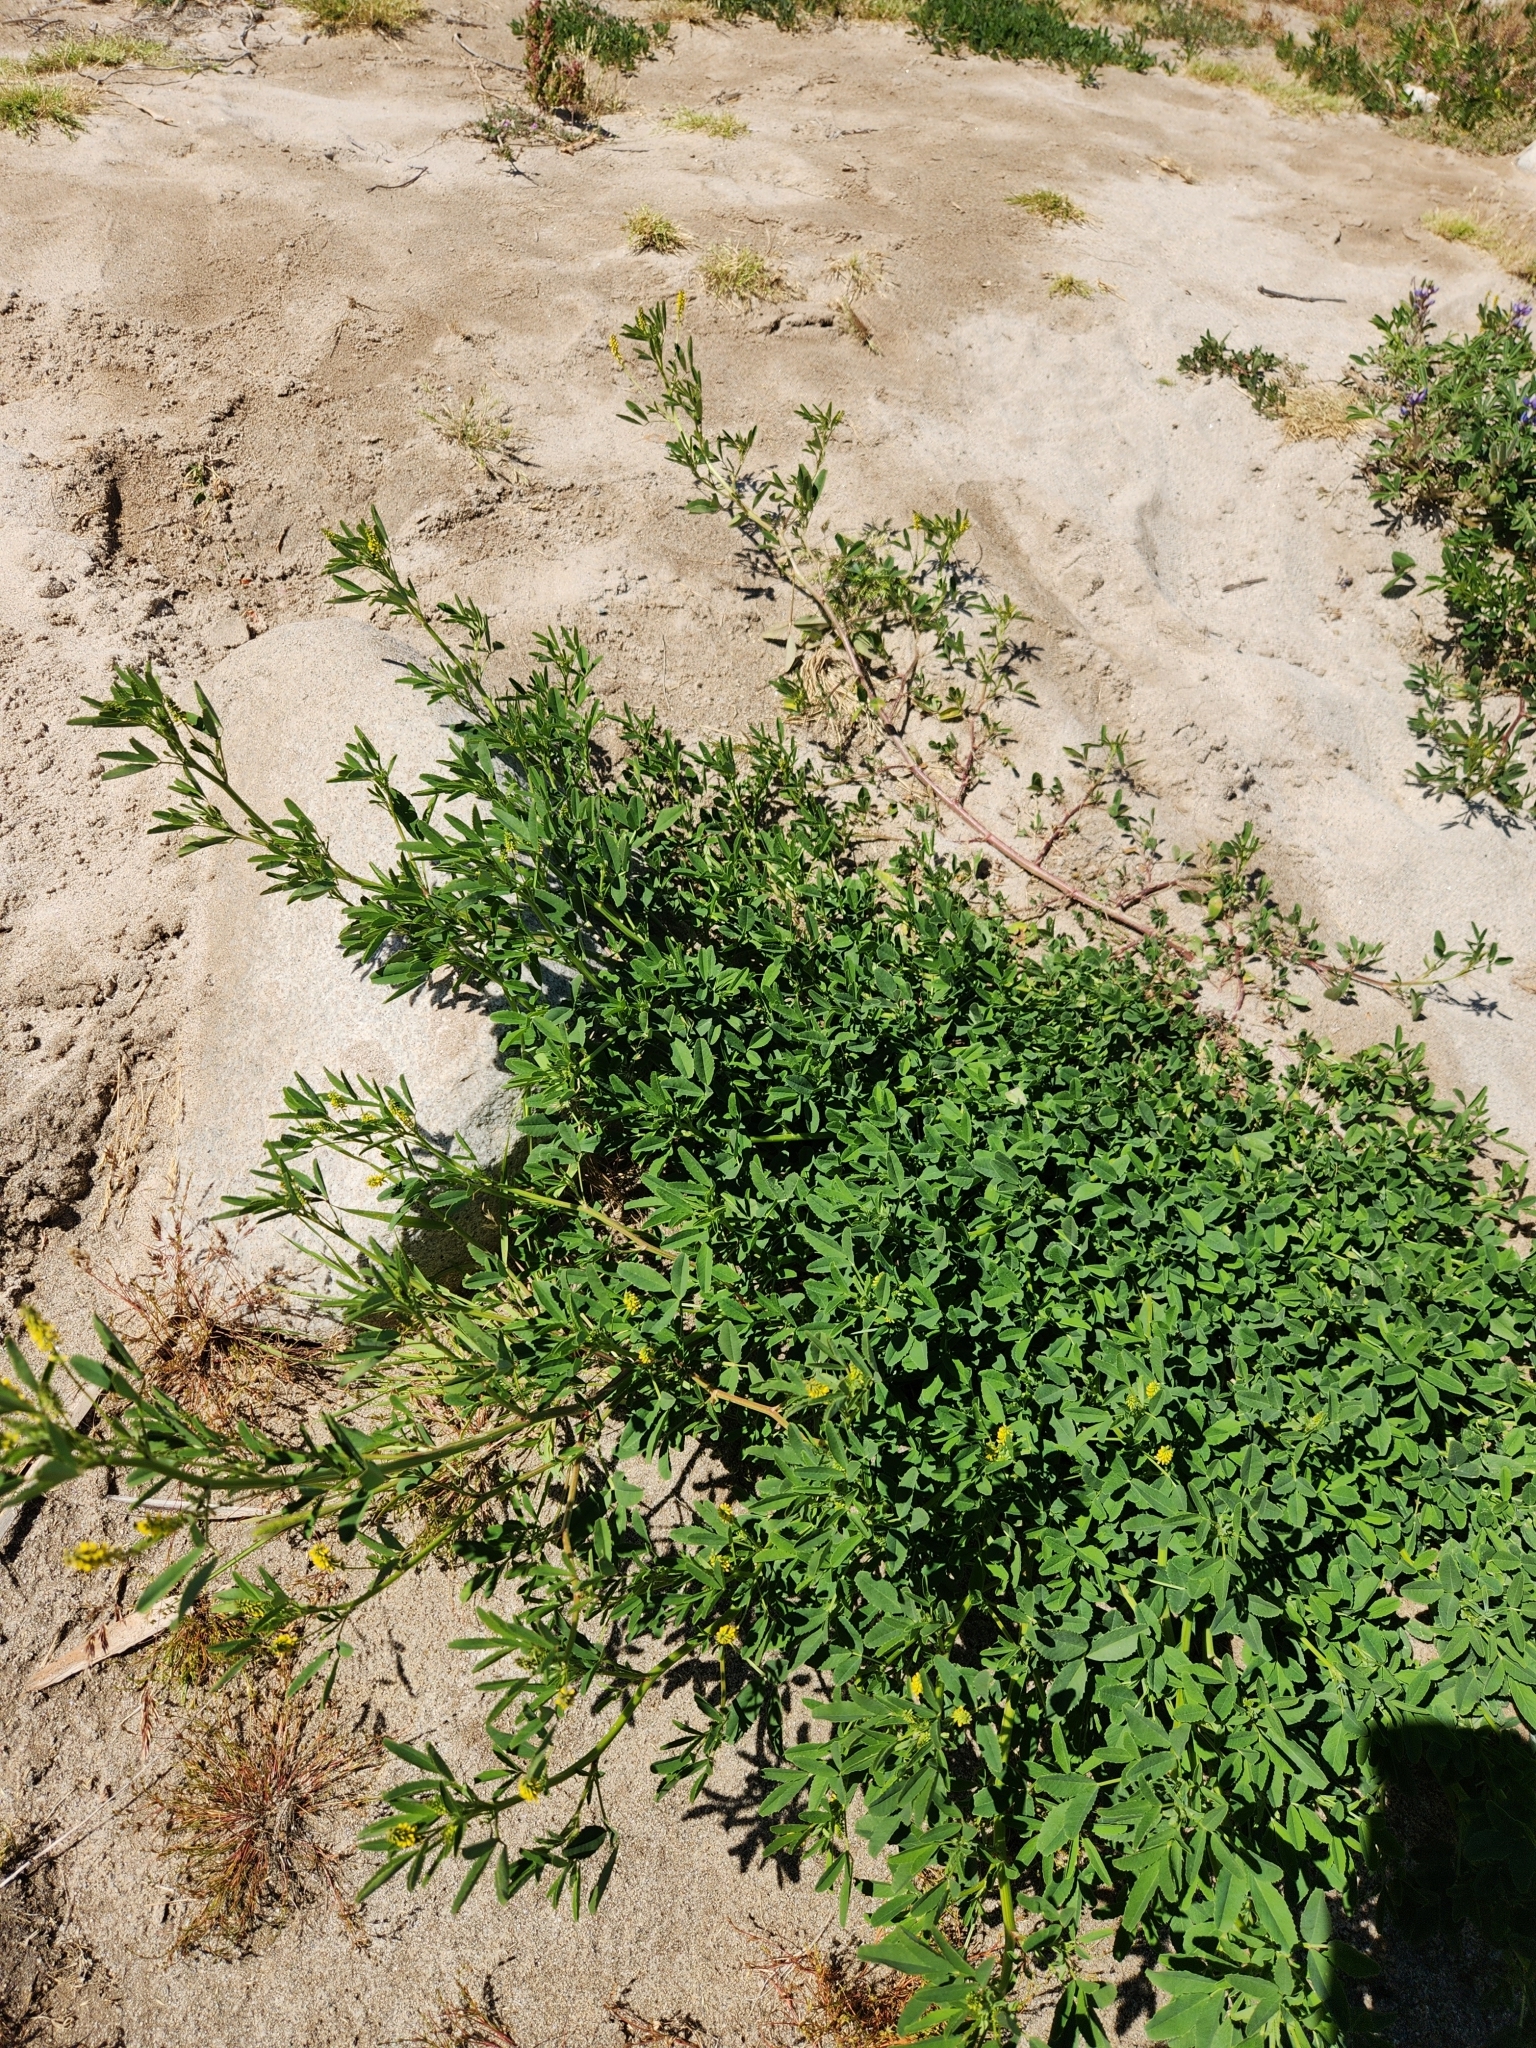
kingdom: Plantae
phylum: Tracheophyta
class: Magnoliopsida
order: Fabales
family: Fabaceae
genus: Melilotus
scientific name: Melilotus indicus
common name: Small melilot
